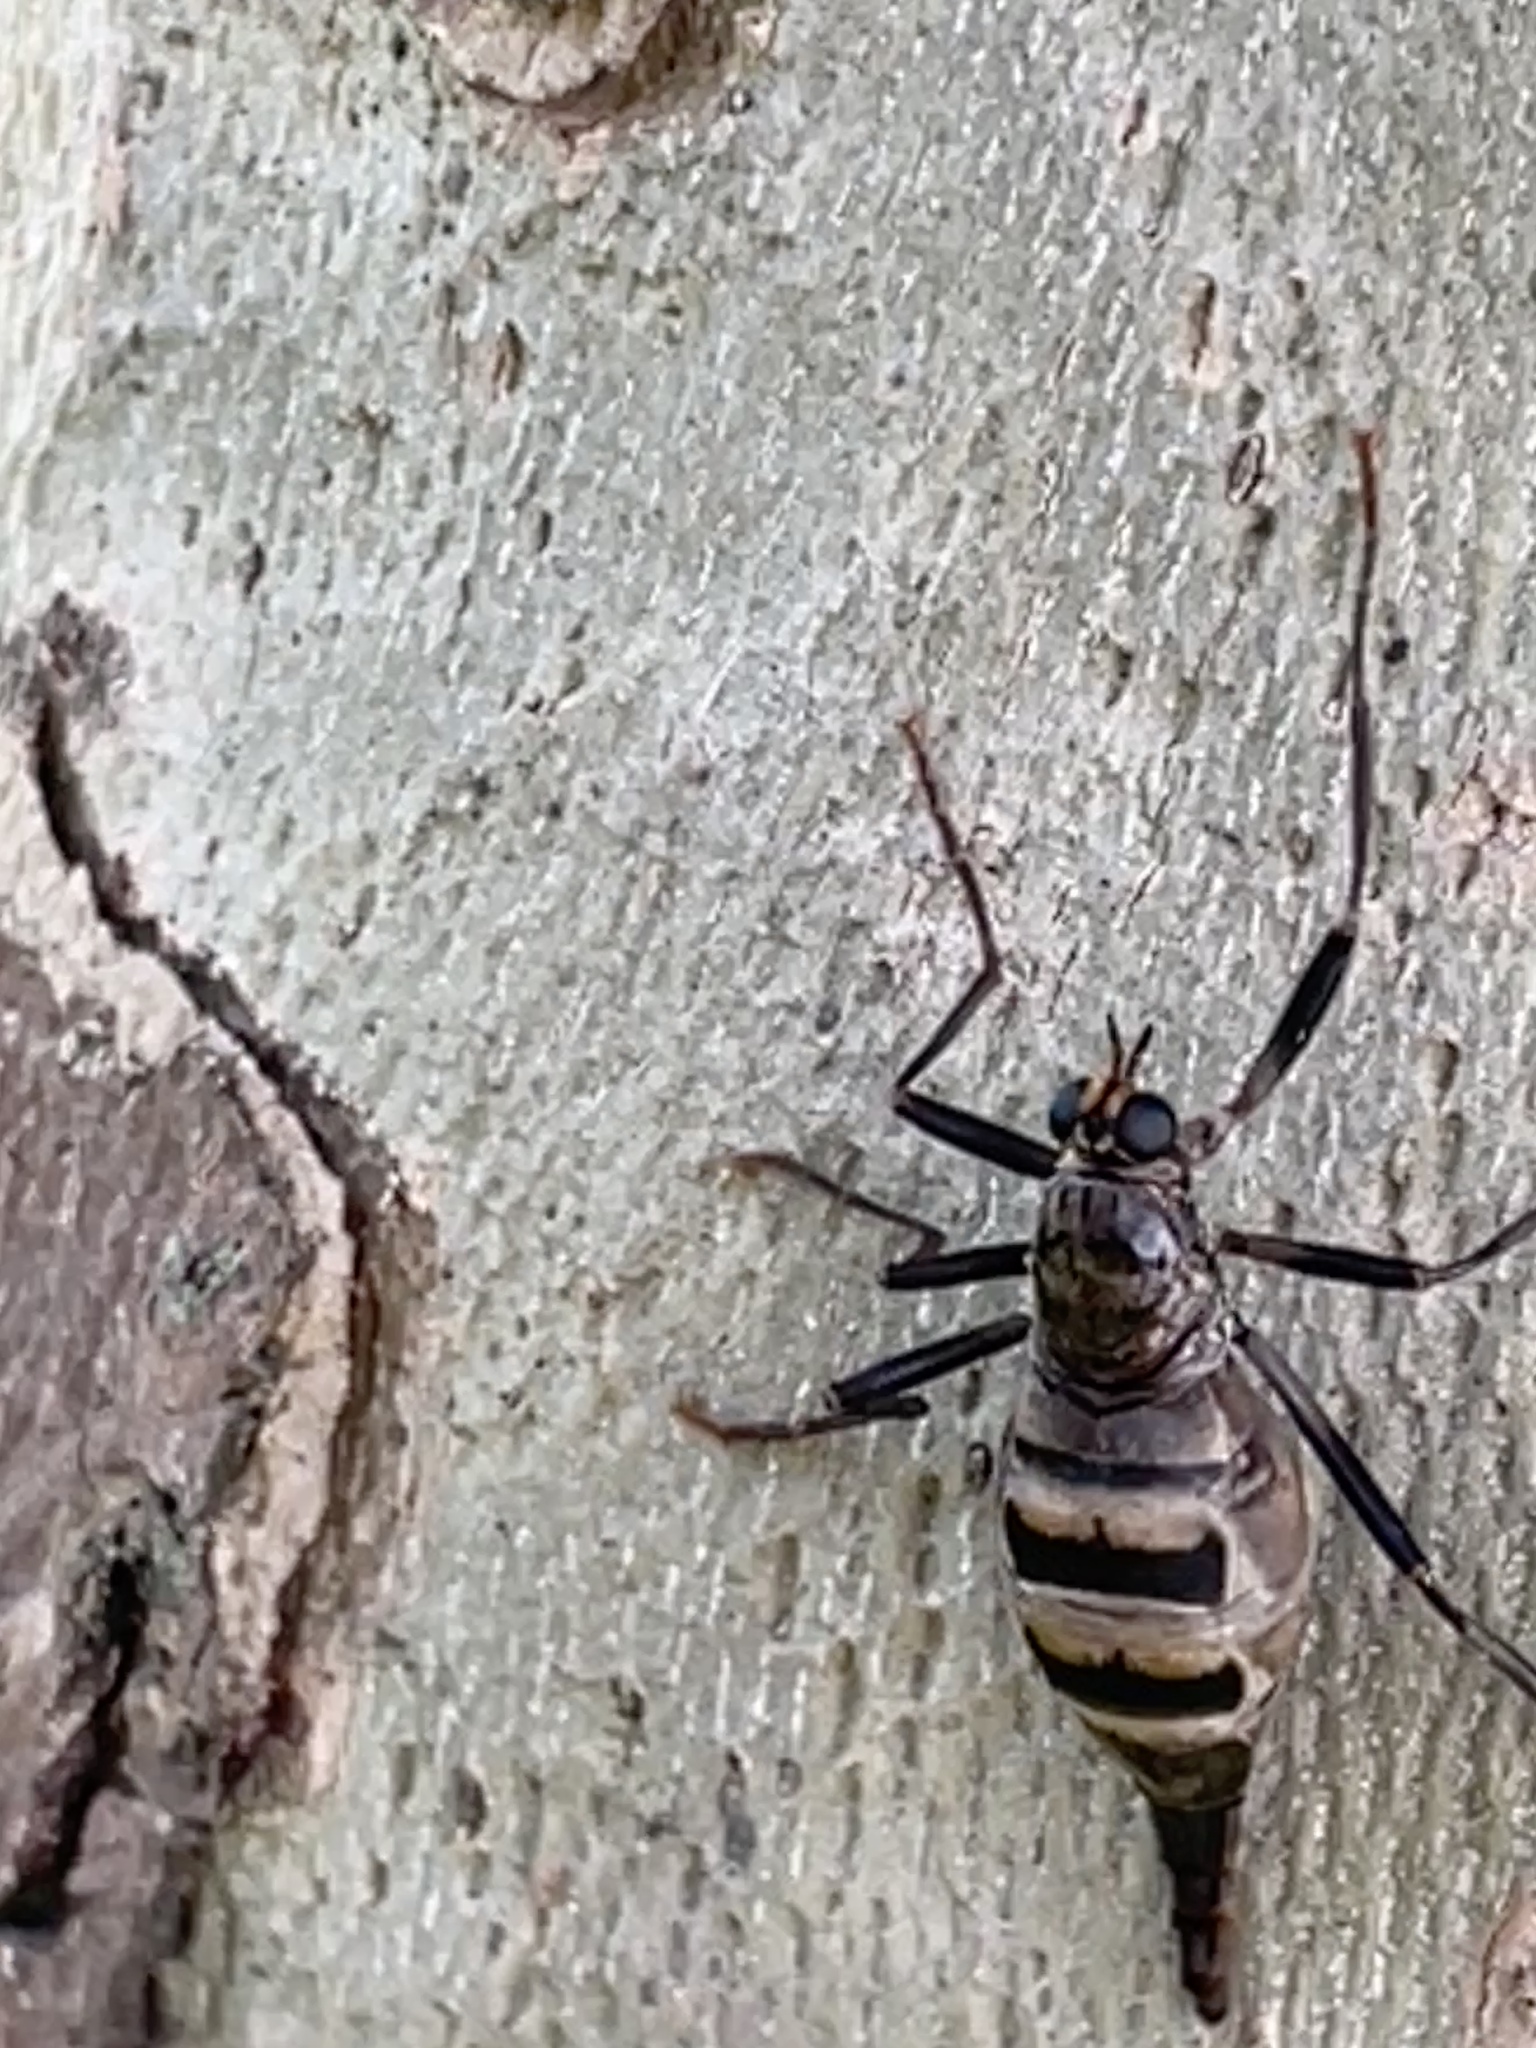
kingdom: Animalia
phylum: Arthropoda
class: Insecta
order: Diptera
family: Stratiomyidae
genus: Boreoides
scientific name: Boreoides subulatus
